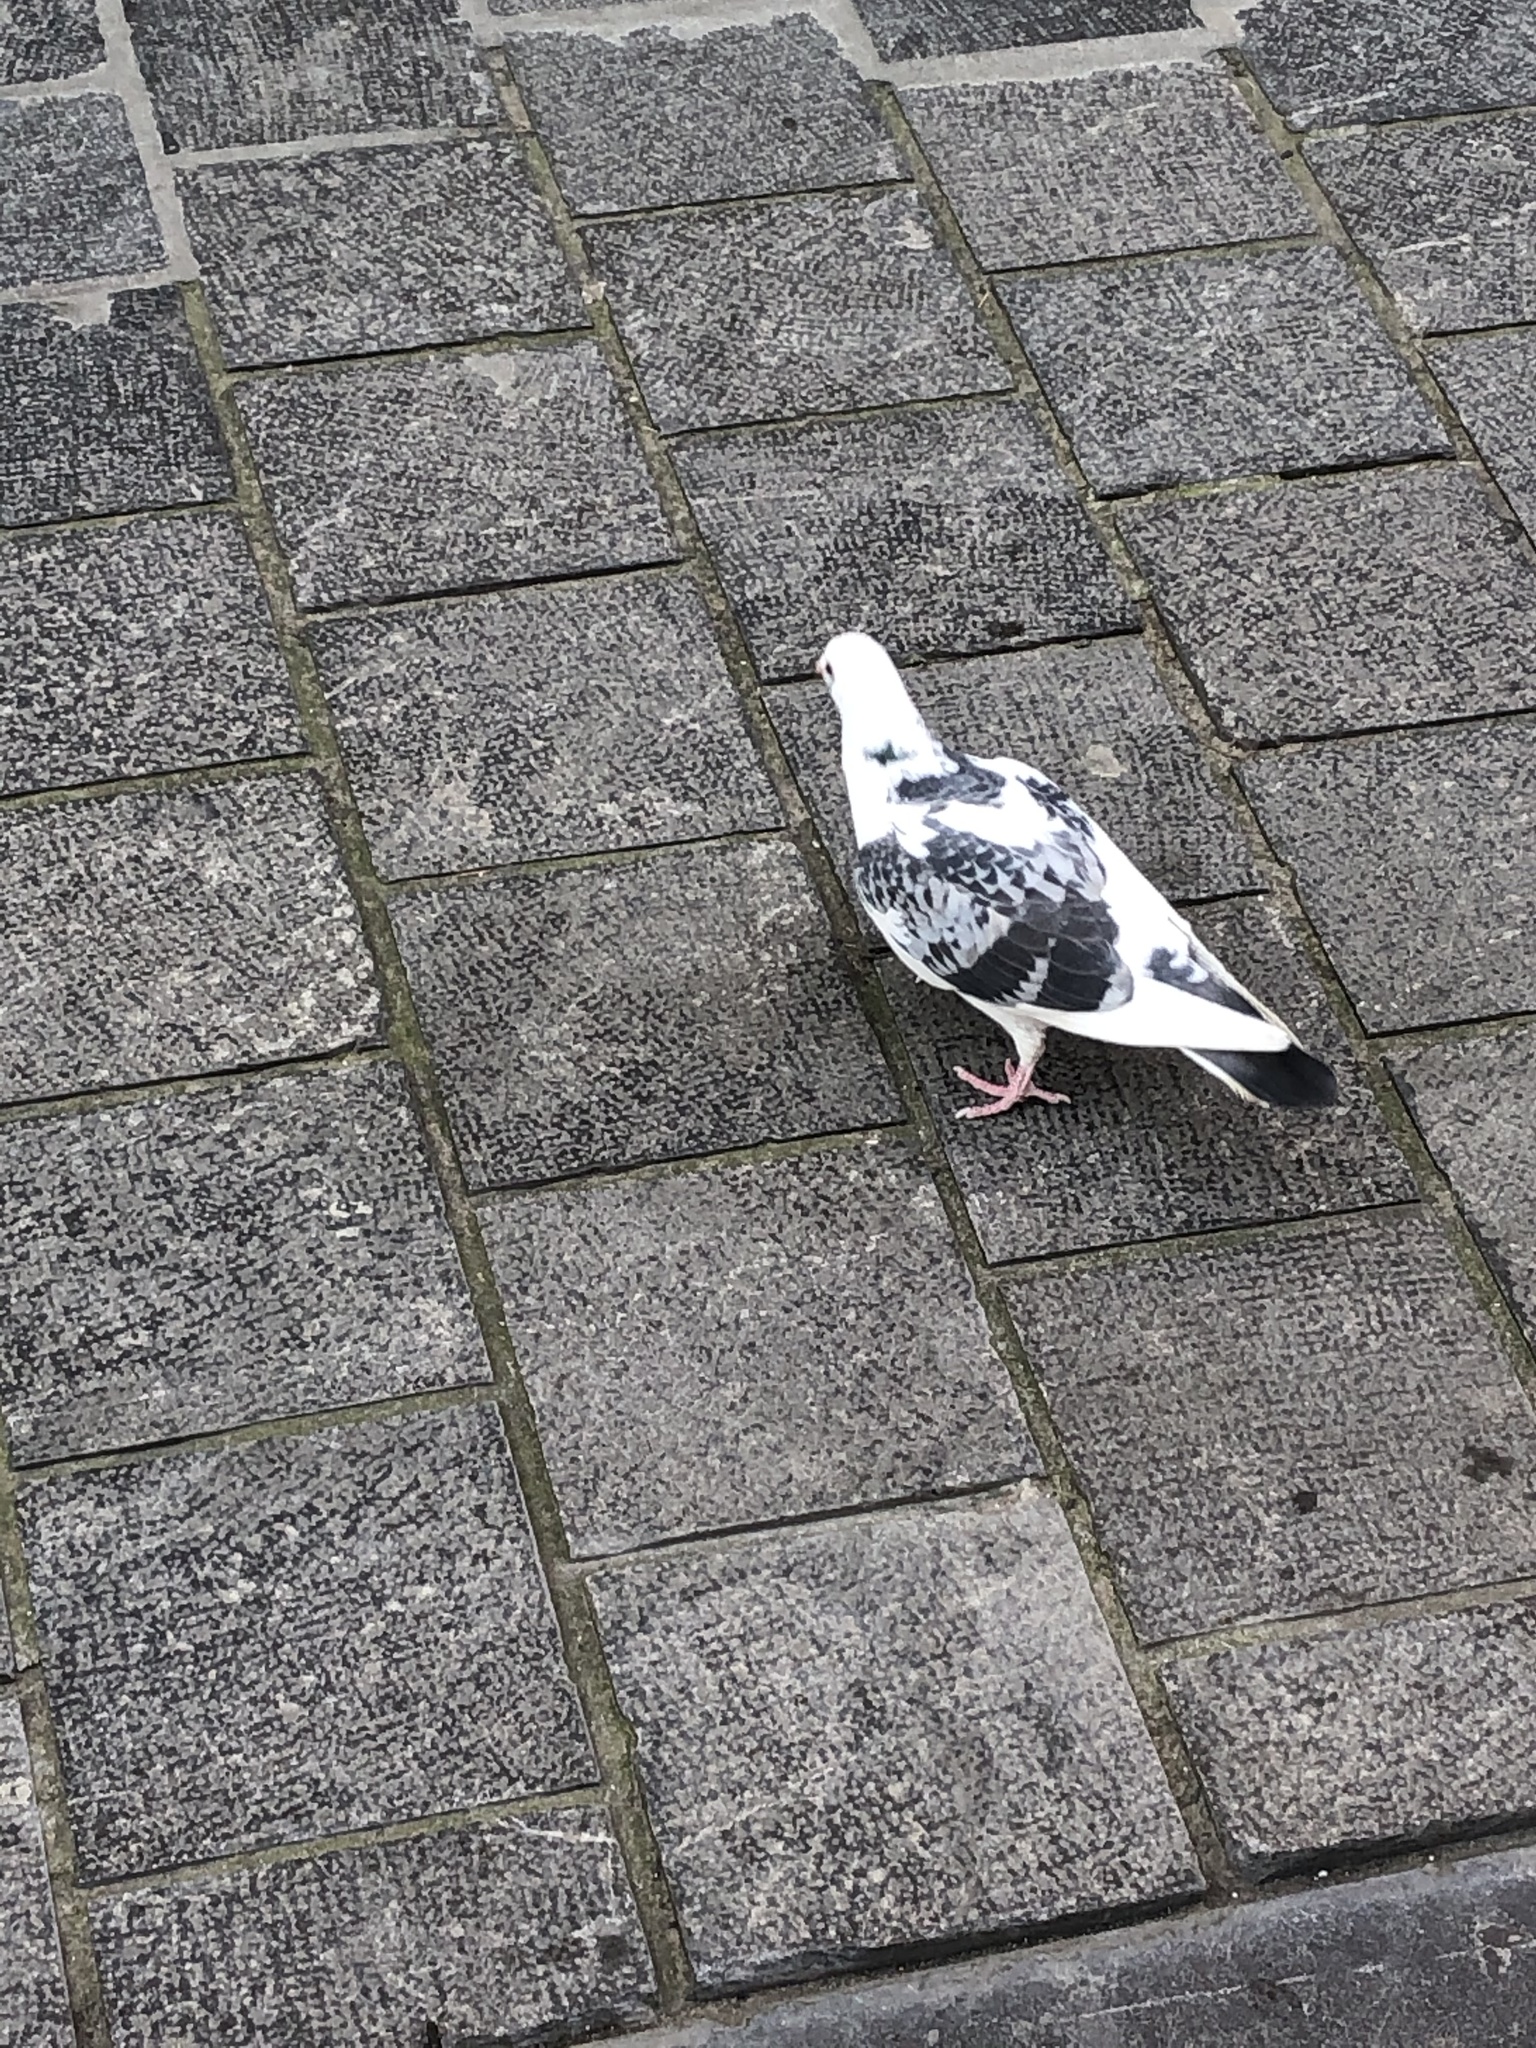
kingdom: Animalia
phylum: Chordata
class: Aves
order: Columbiformes
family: Columbidae
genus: Columba
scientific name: Columba livia
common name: Rock pigeon
